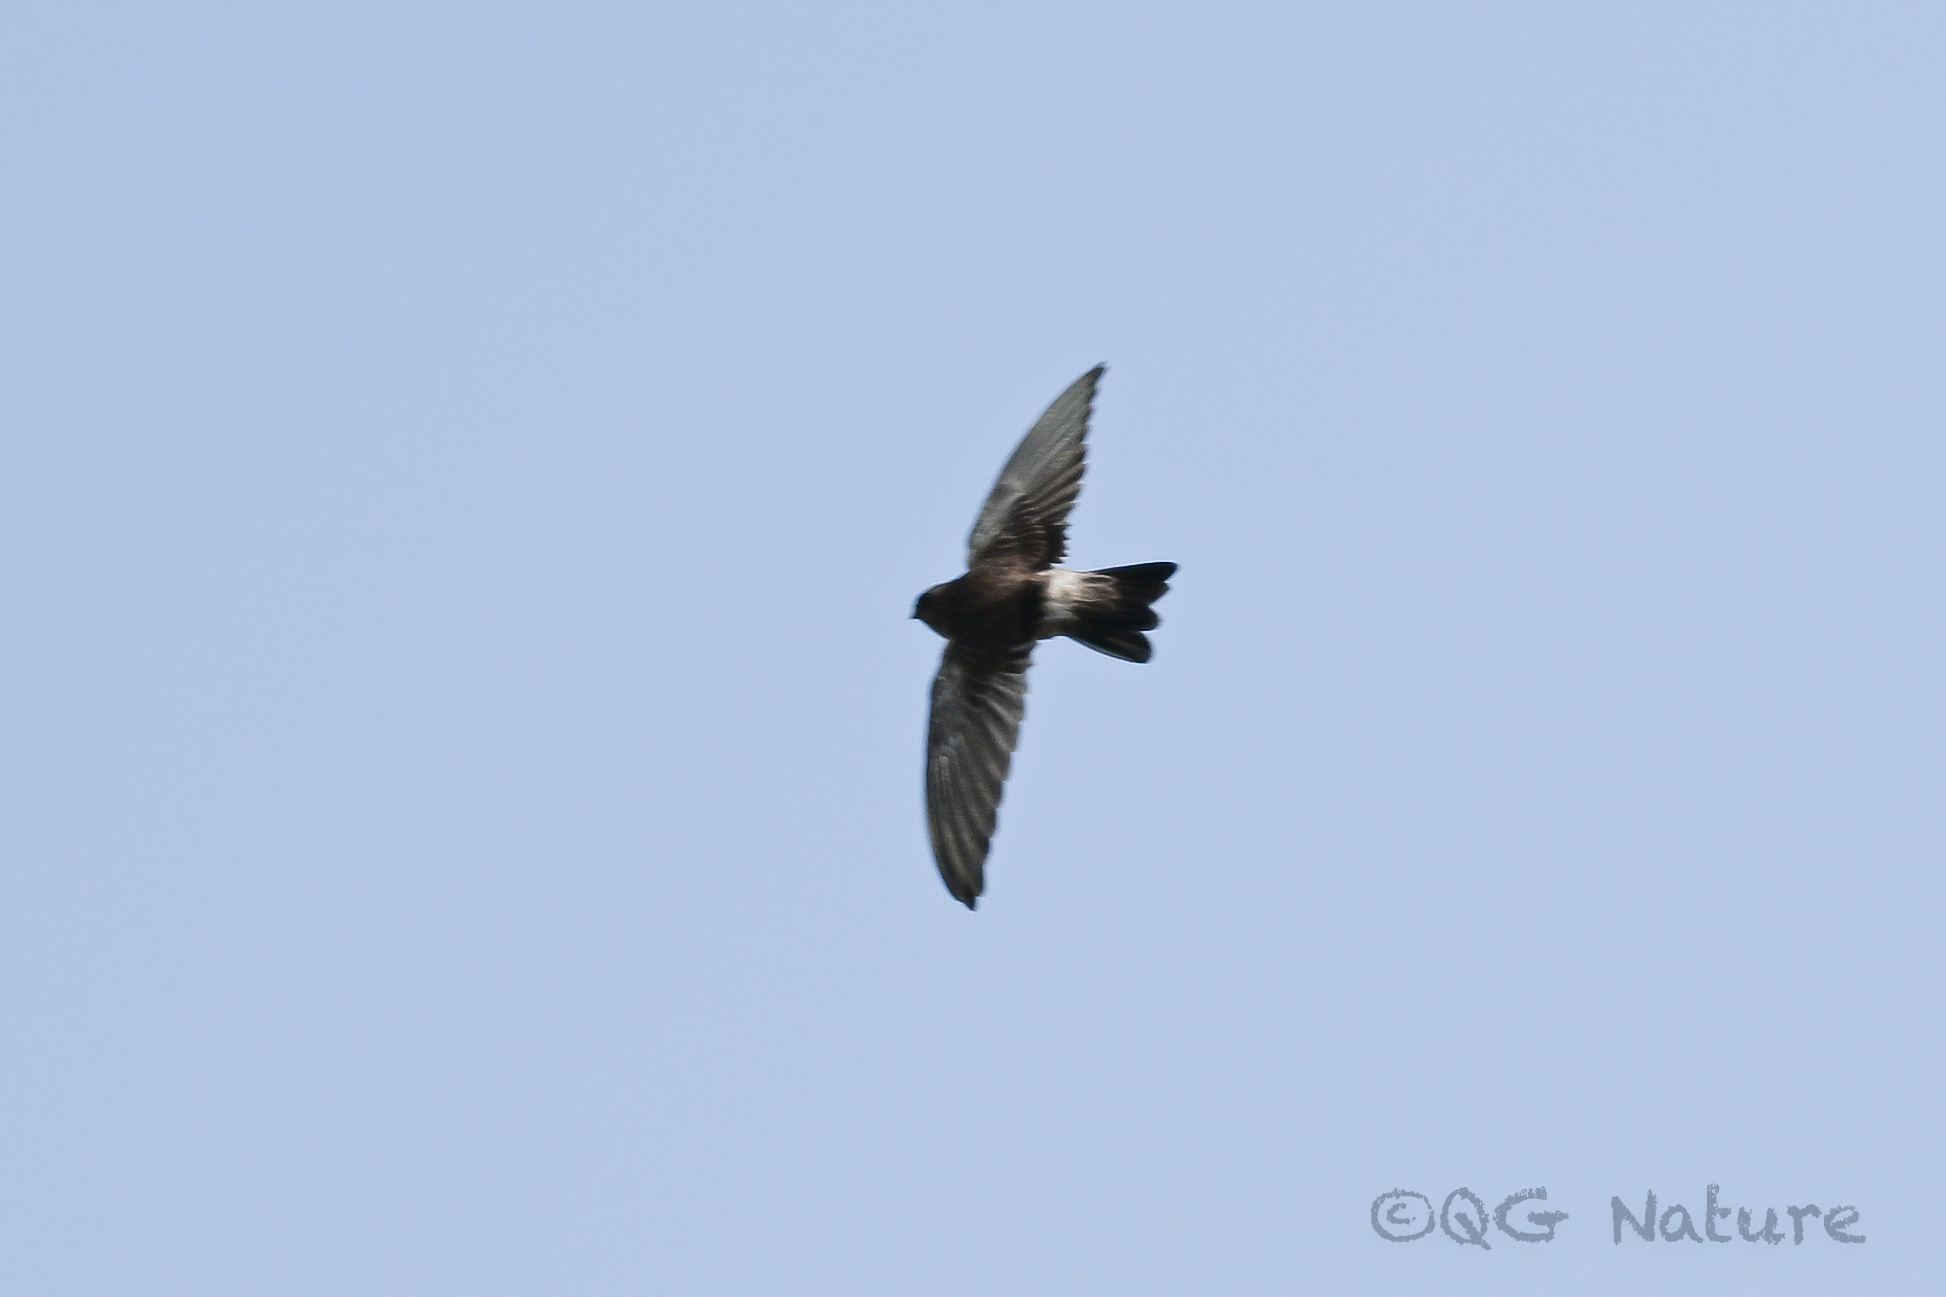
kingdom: Animalia
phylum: Chordata
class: Aves
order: Apodiformes
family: Apodidae
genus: Aerodramus
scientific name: Aerodramus brevirostris
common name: Himalayan swiftlet
